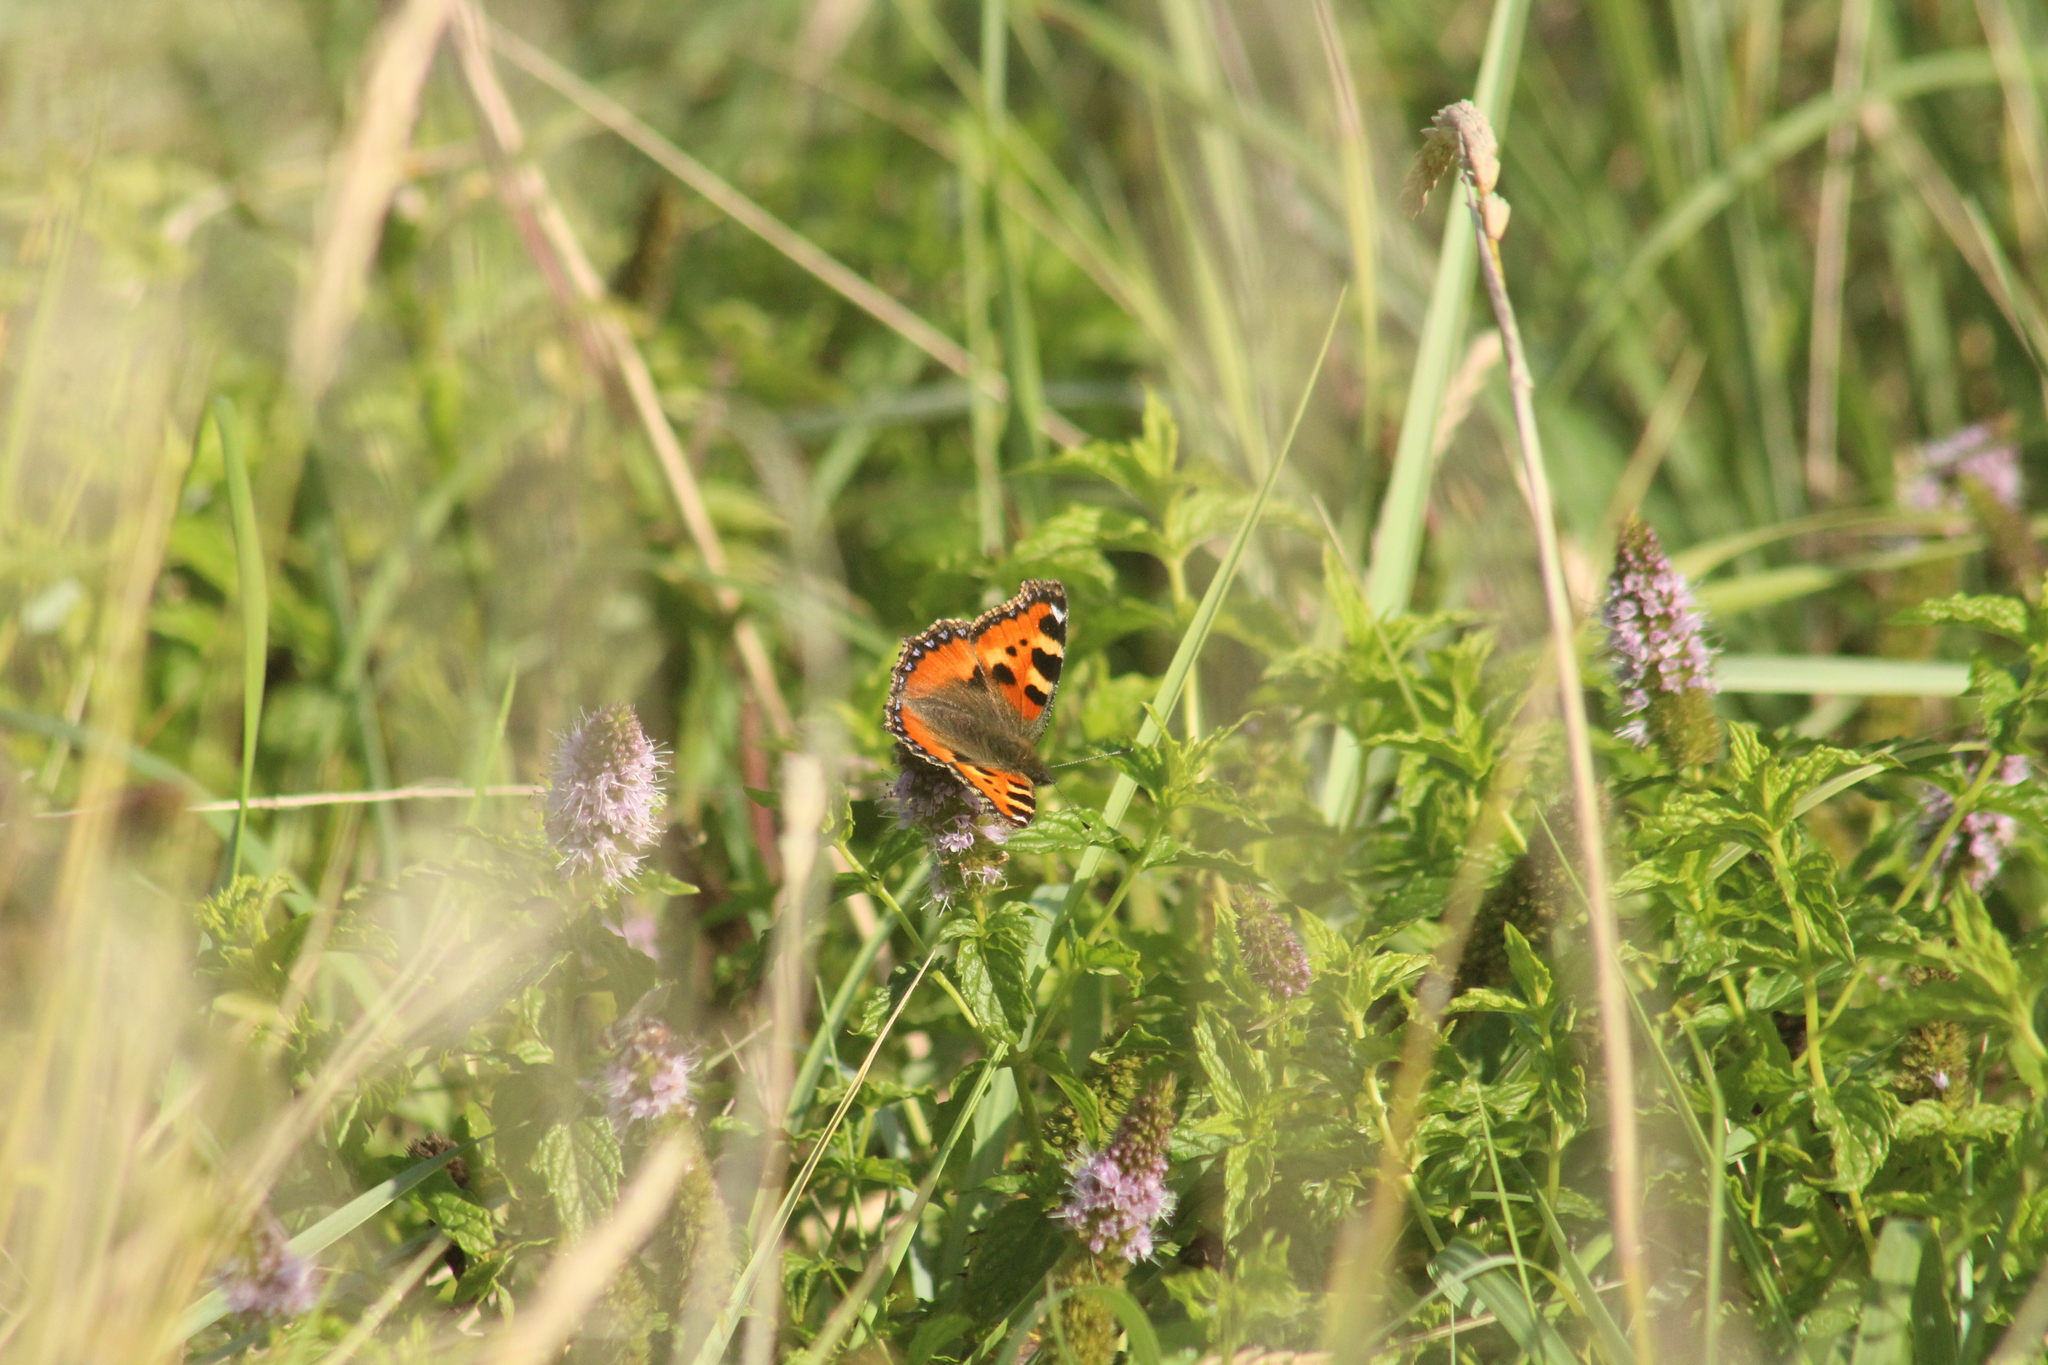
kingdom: Animalia
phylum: Arthropoda
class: Insecta
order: Lepidoptera
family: Nymphalidae
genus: Aglais
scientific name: Aglais urticae
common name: Small tortoiseshell
